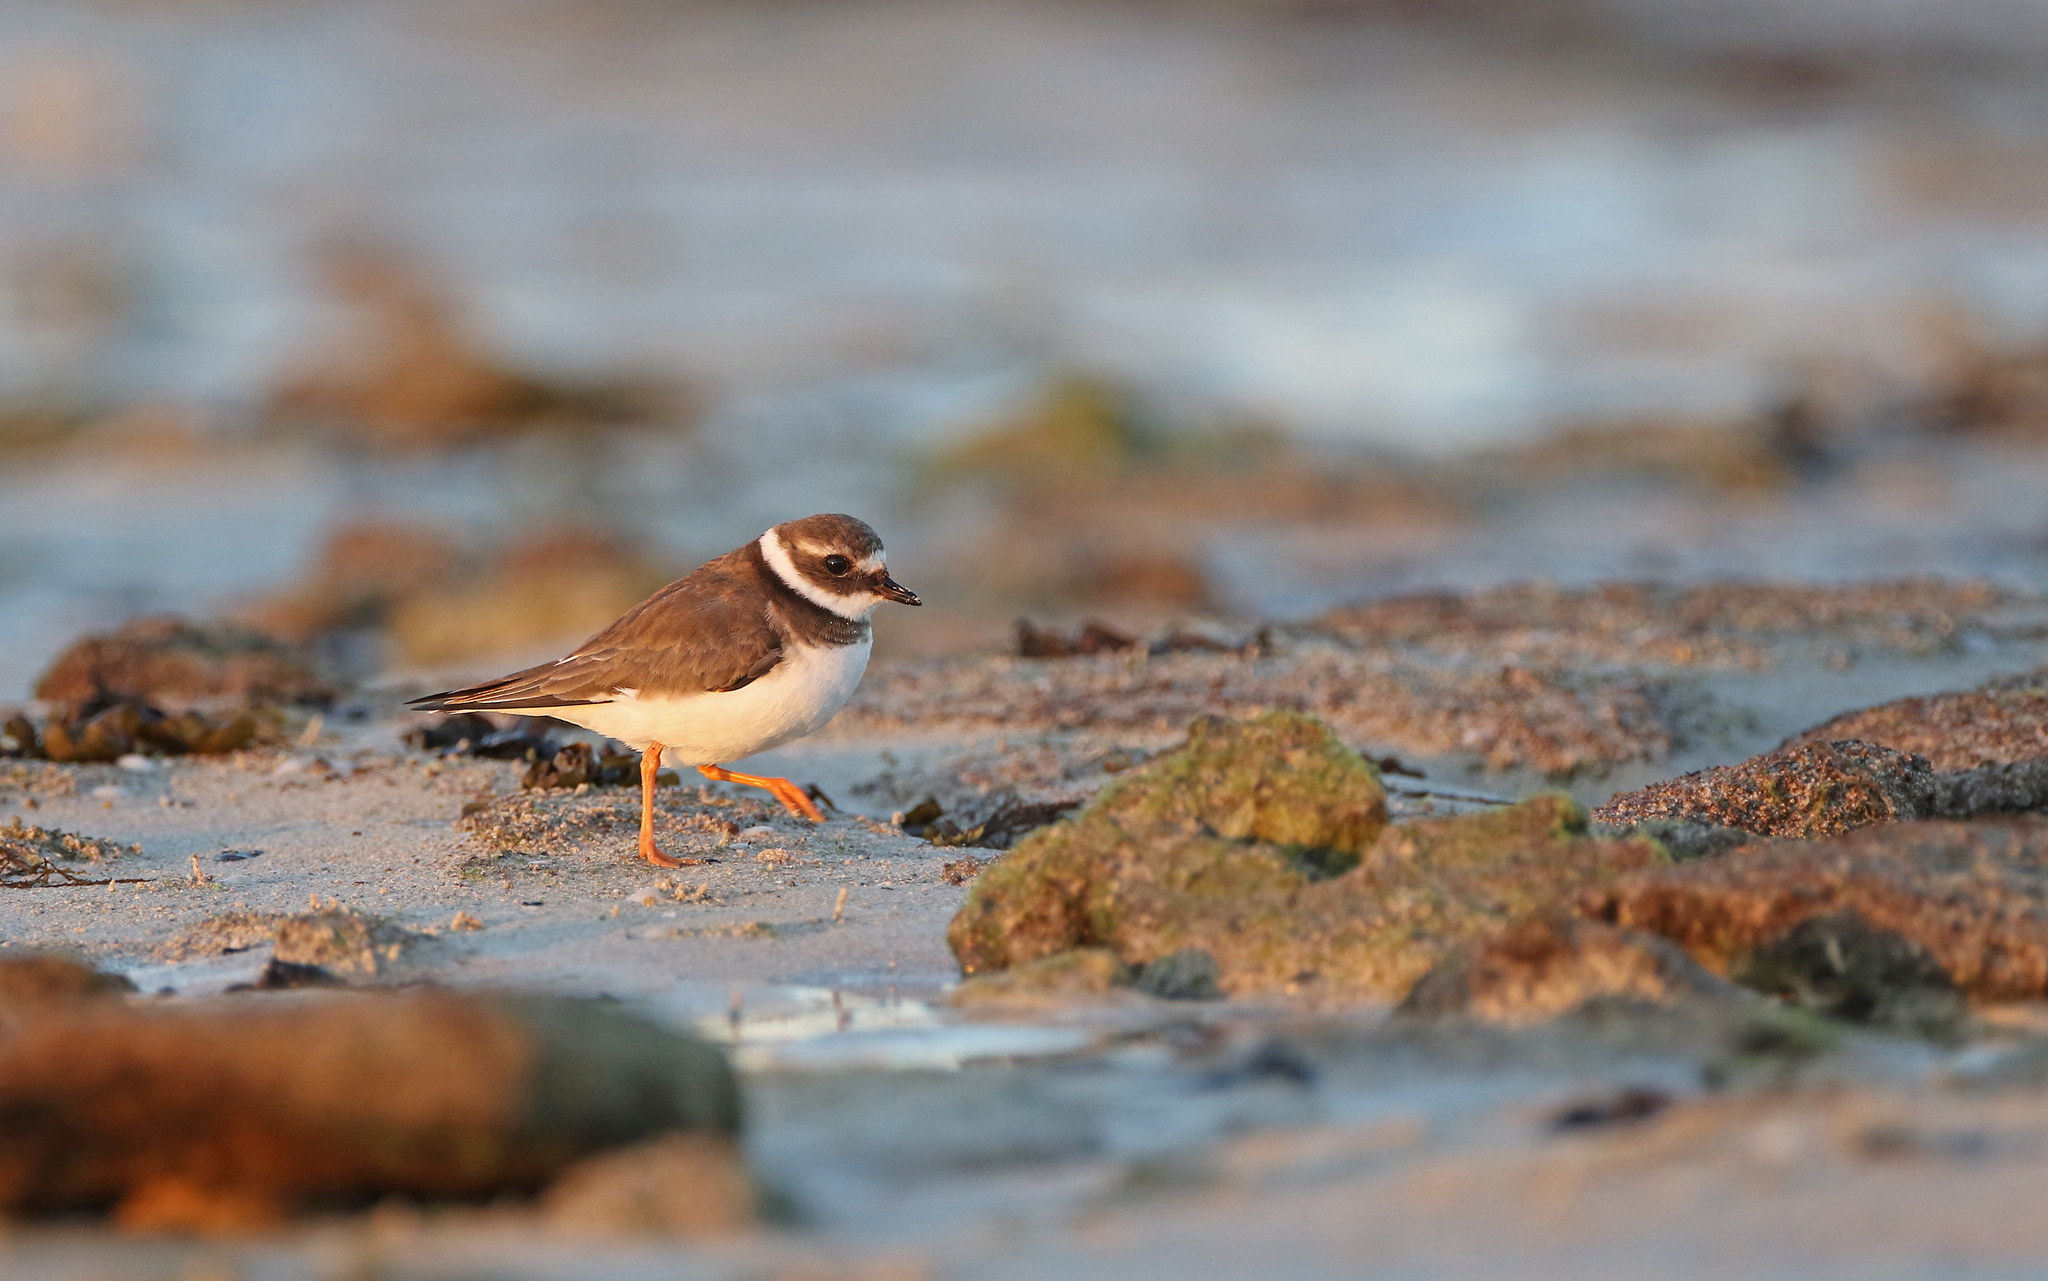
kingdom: Animalia
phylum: Chordata
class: Aves
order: Charadriiformes
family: Charadriidae
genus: Charadrius
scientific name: Charadrius hiaticula
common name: Common ringed plover
